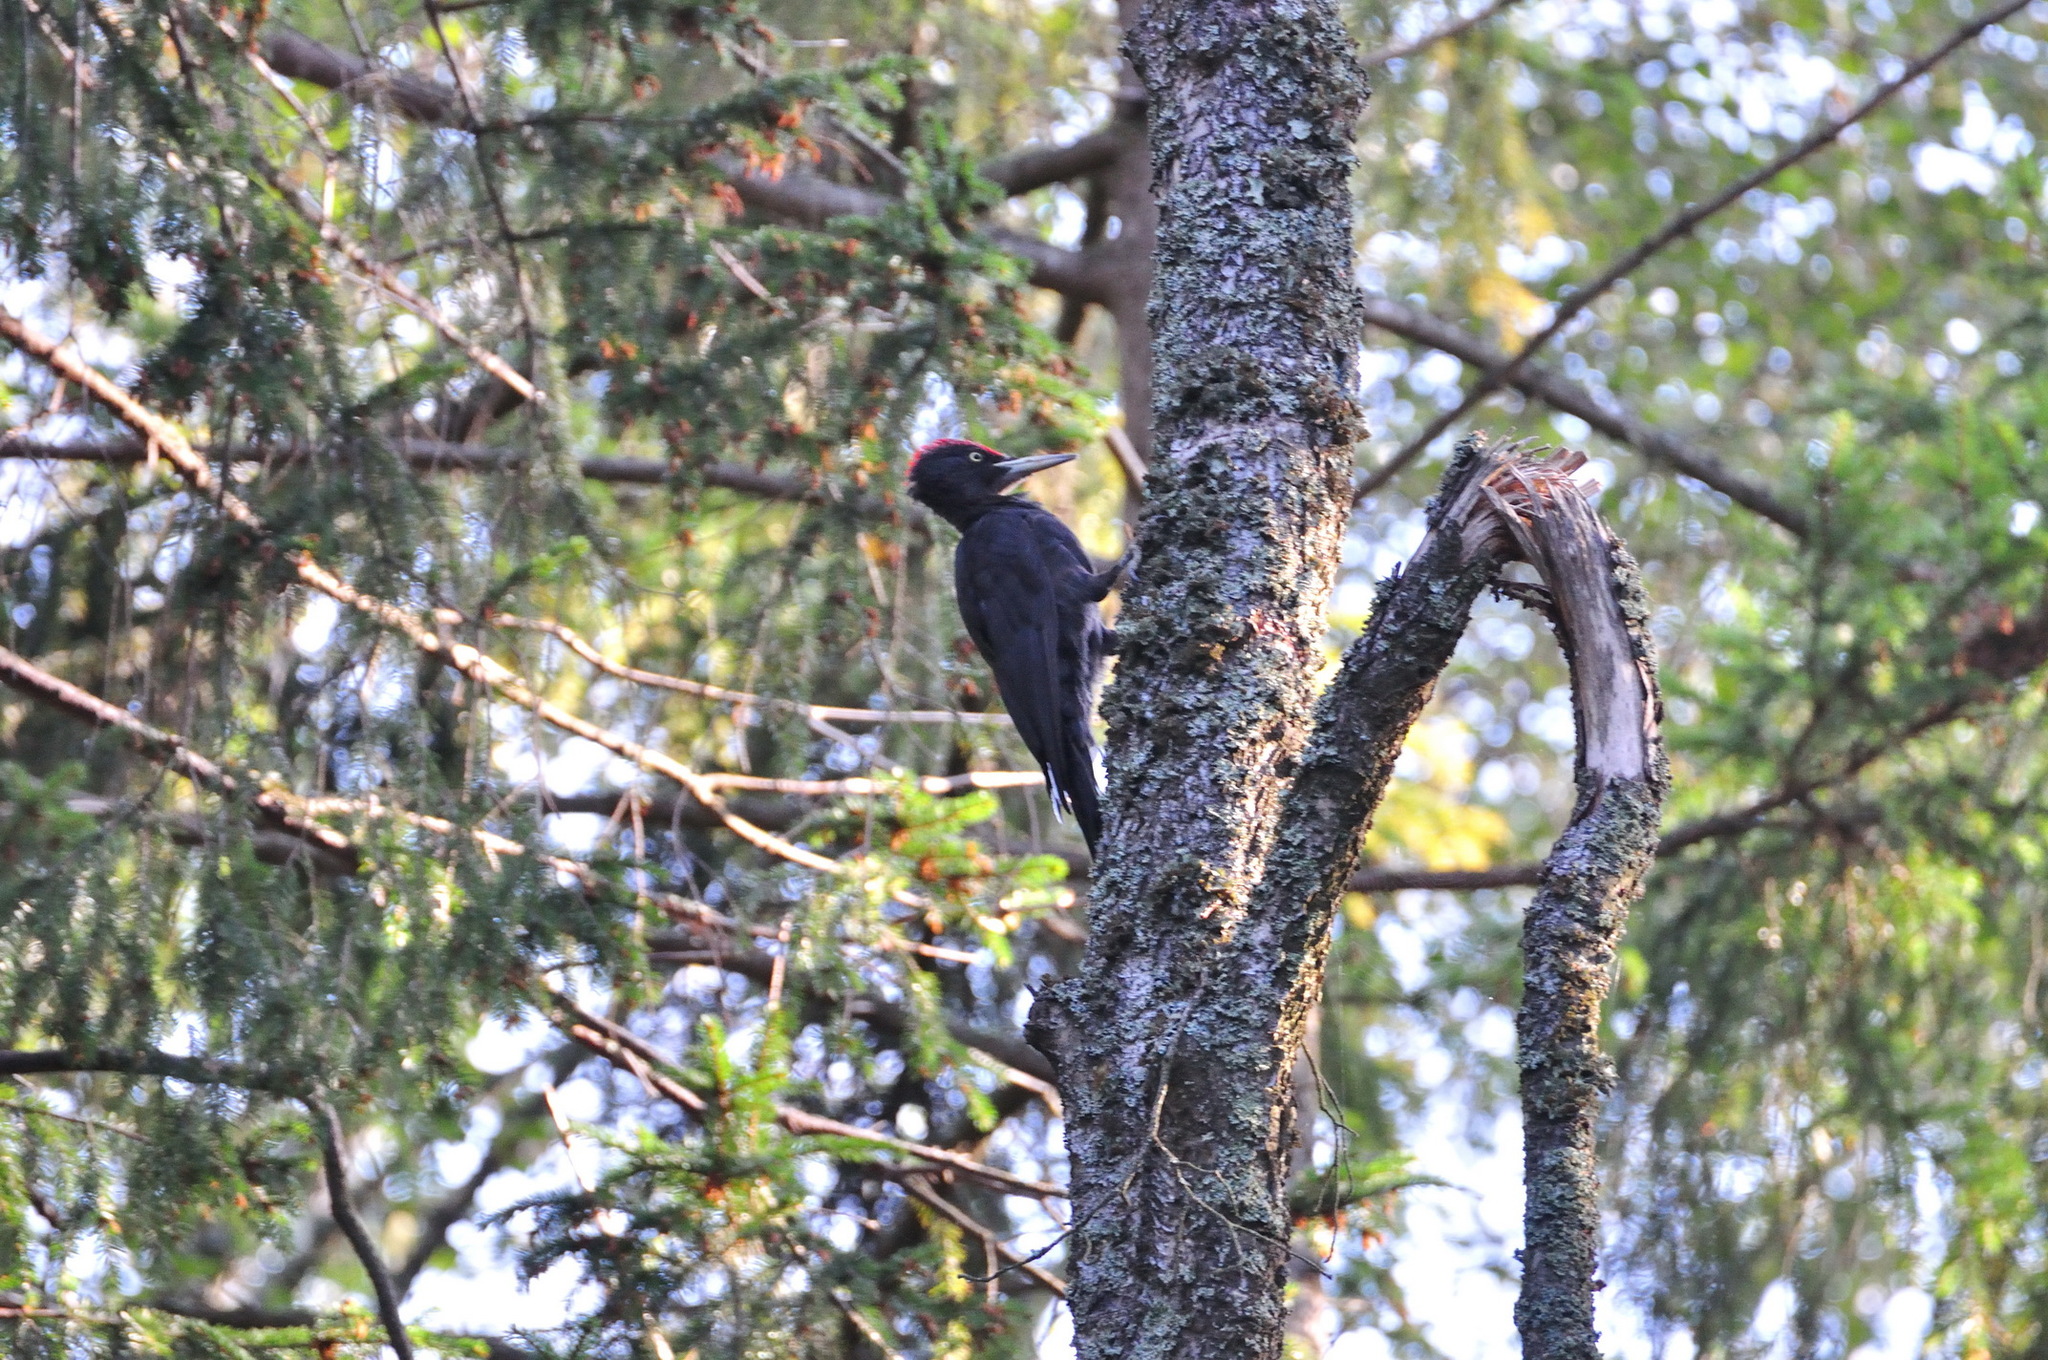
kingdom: Animalia
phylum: Chordata
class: Aves
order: Piciformes
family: Picidae
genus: Dryocopus
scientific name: Dryocopus martius
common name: Black woodpecker
